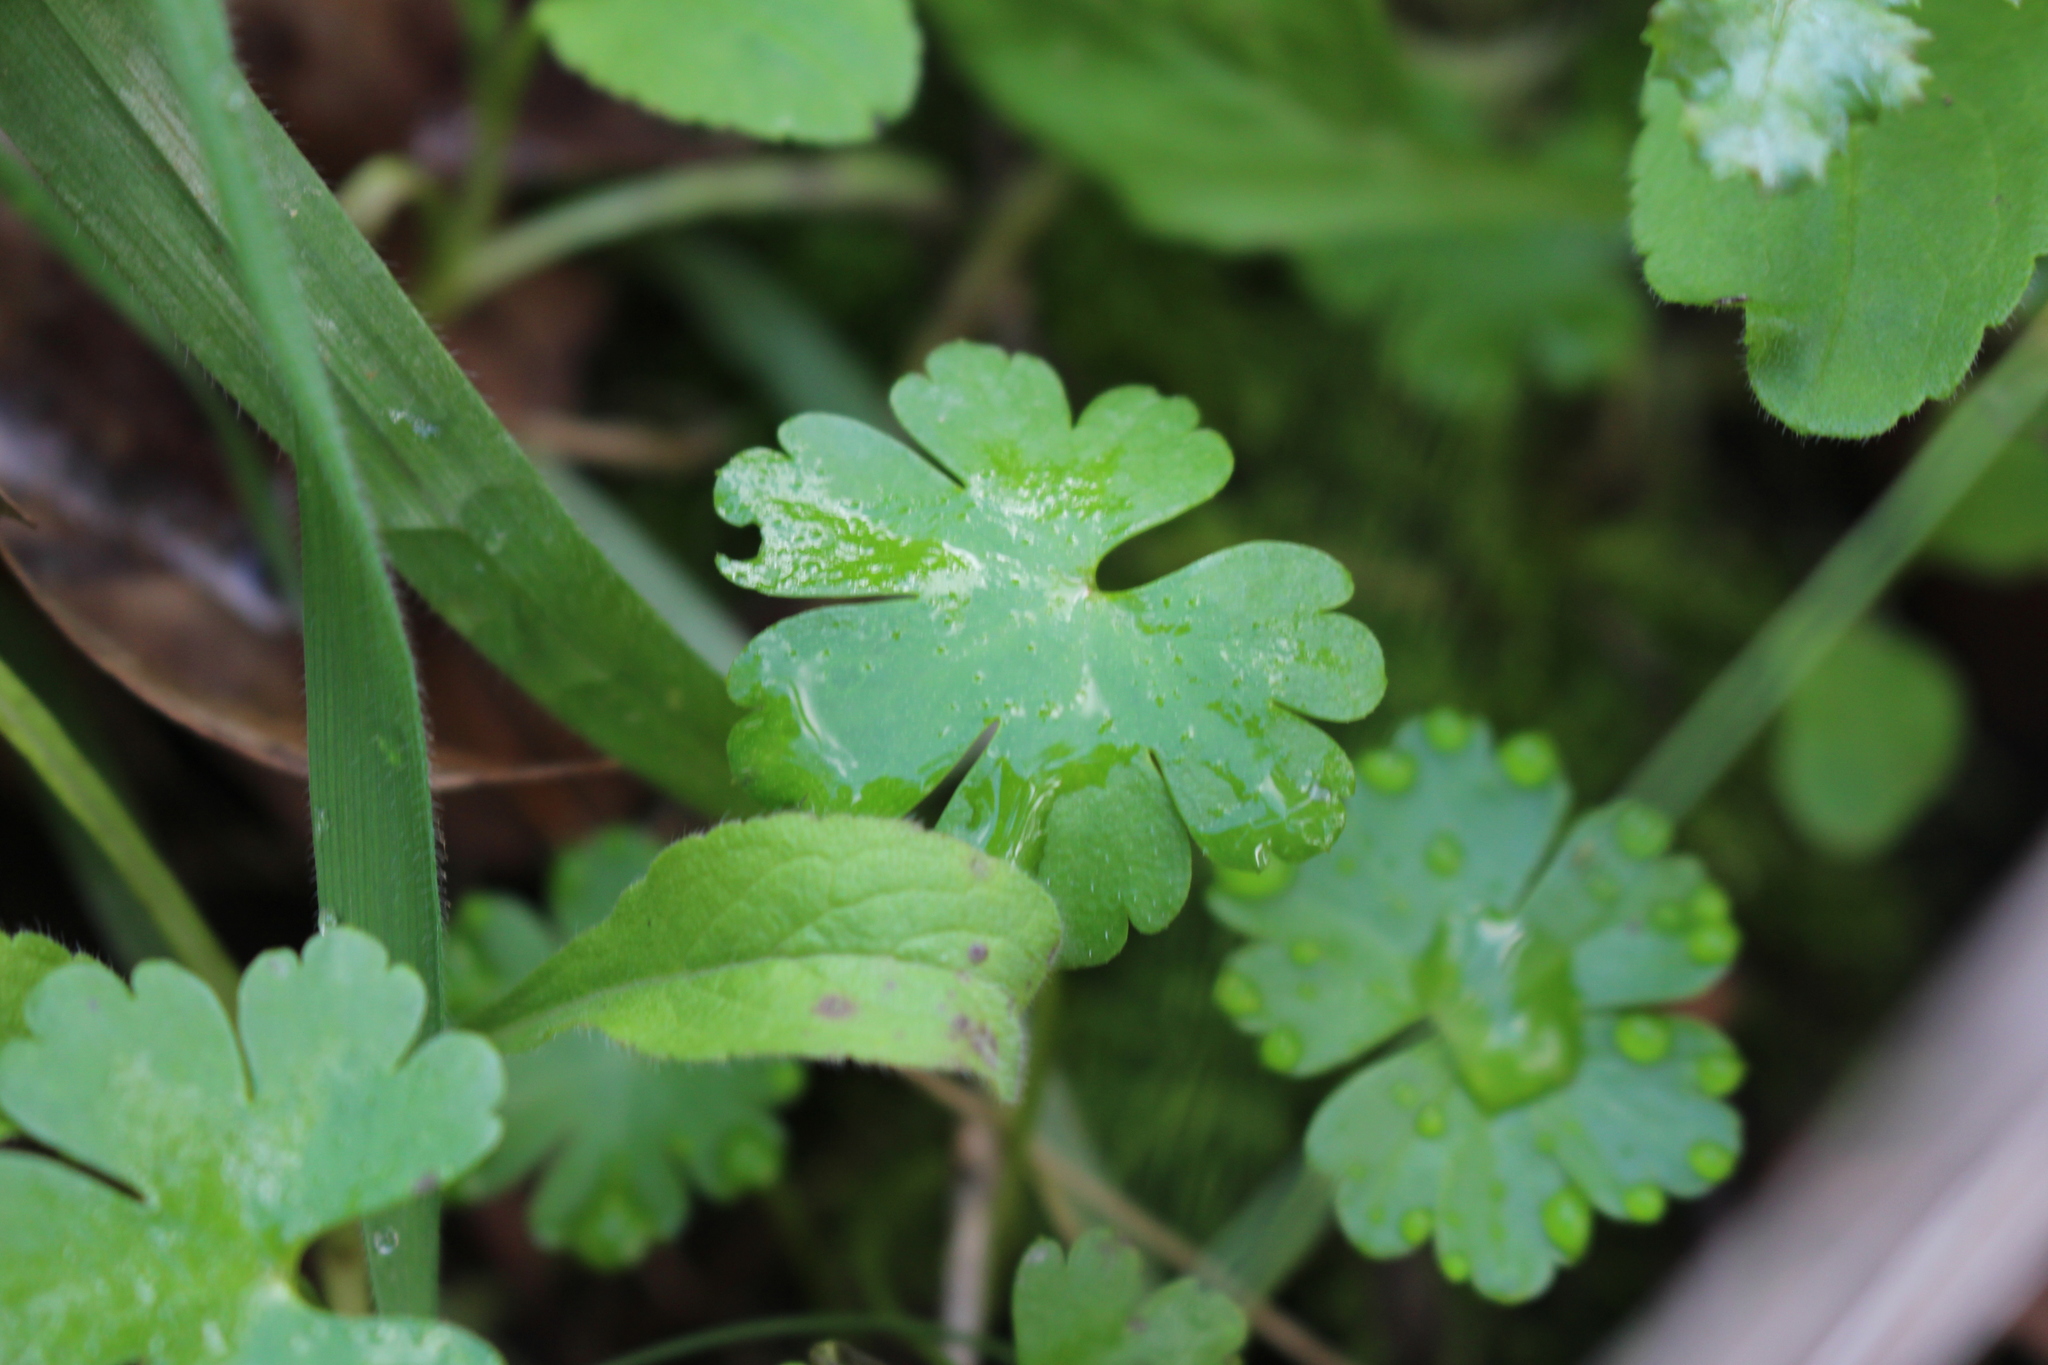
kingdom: Plantae
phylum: Tracheophyta
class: Magnoliopsida
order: Geraniales
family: Geraniaceae
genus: Geranium
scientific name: Geranium lucidum
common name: Shining crane's-bill
